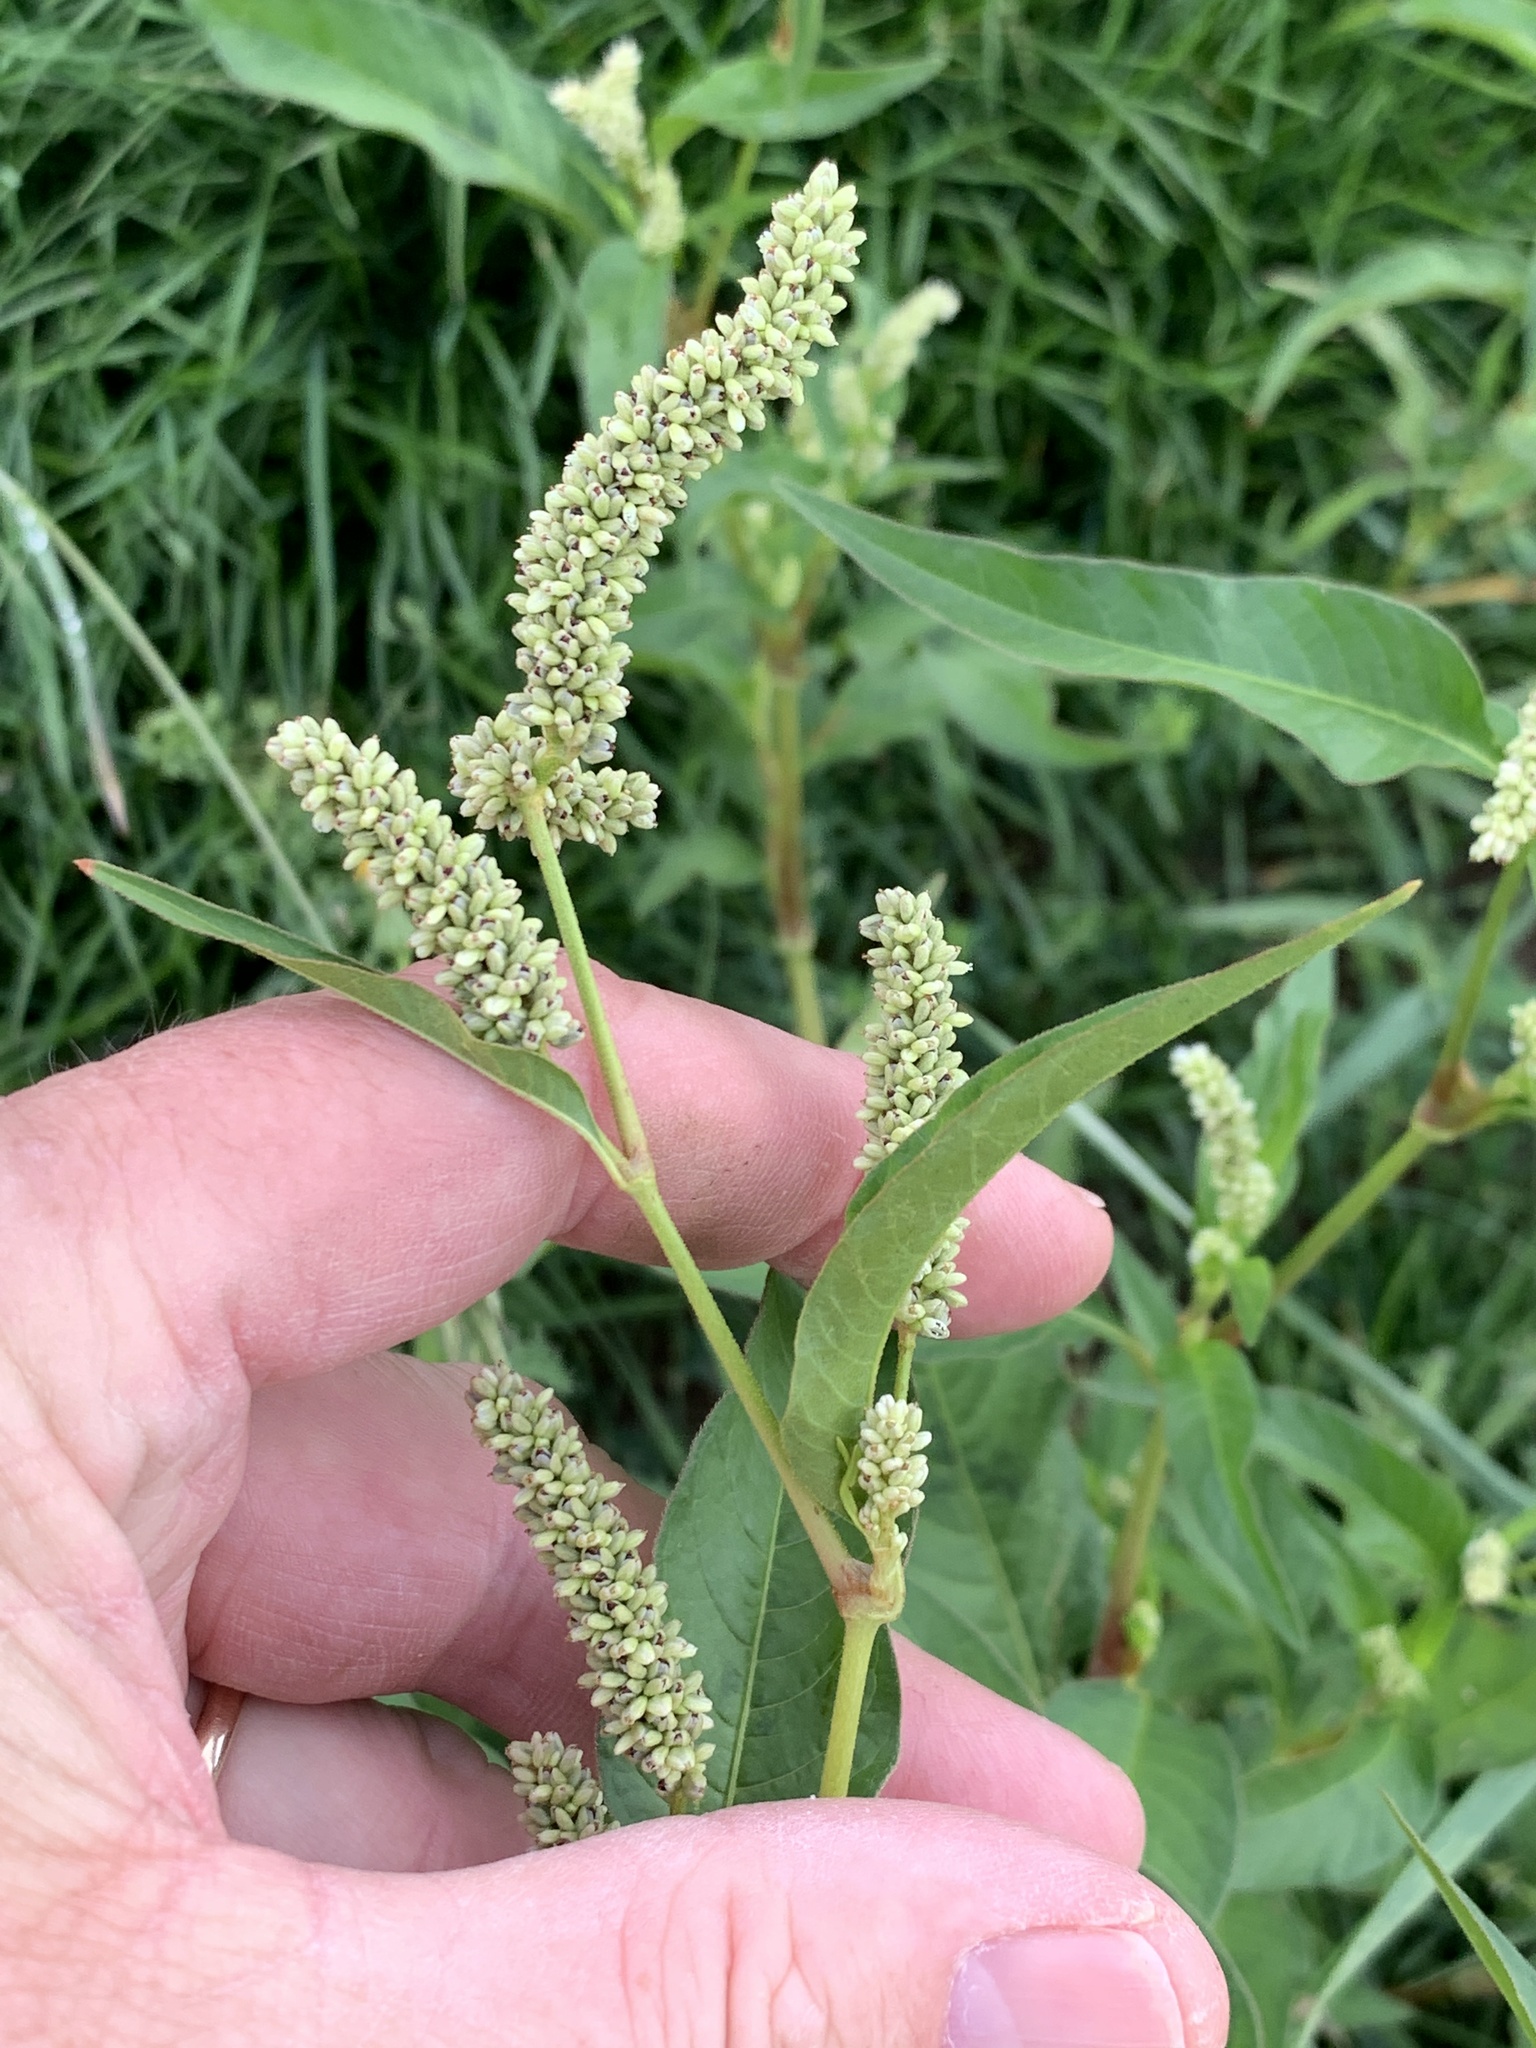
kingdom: Plantae
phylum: Tracheophyta
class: Magnoliopsida
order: Caryophyllales
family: Polygonaceae
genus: Persicaria
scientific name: Persicaria lapathifolia
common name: Curlytop knotweed
